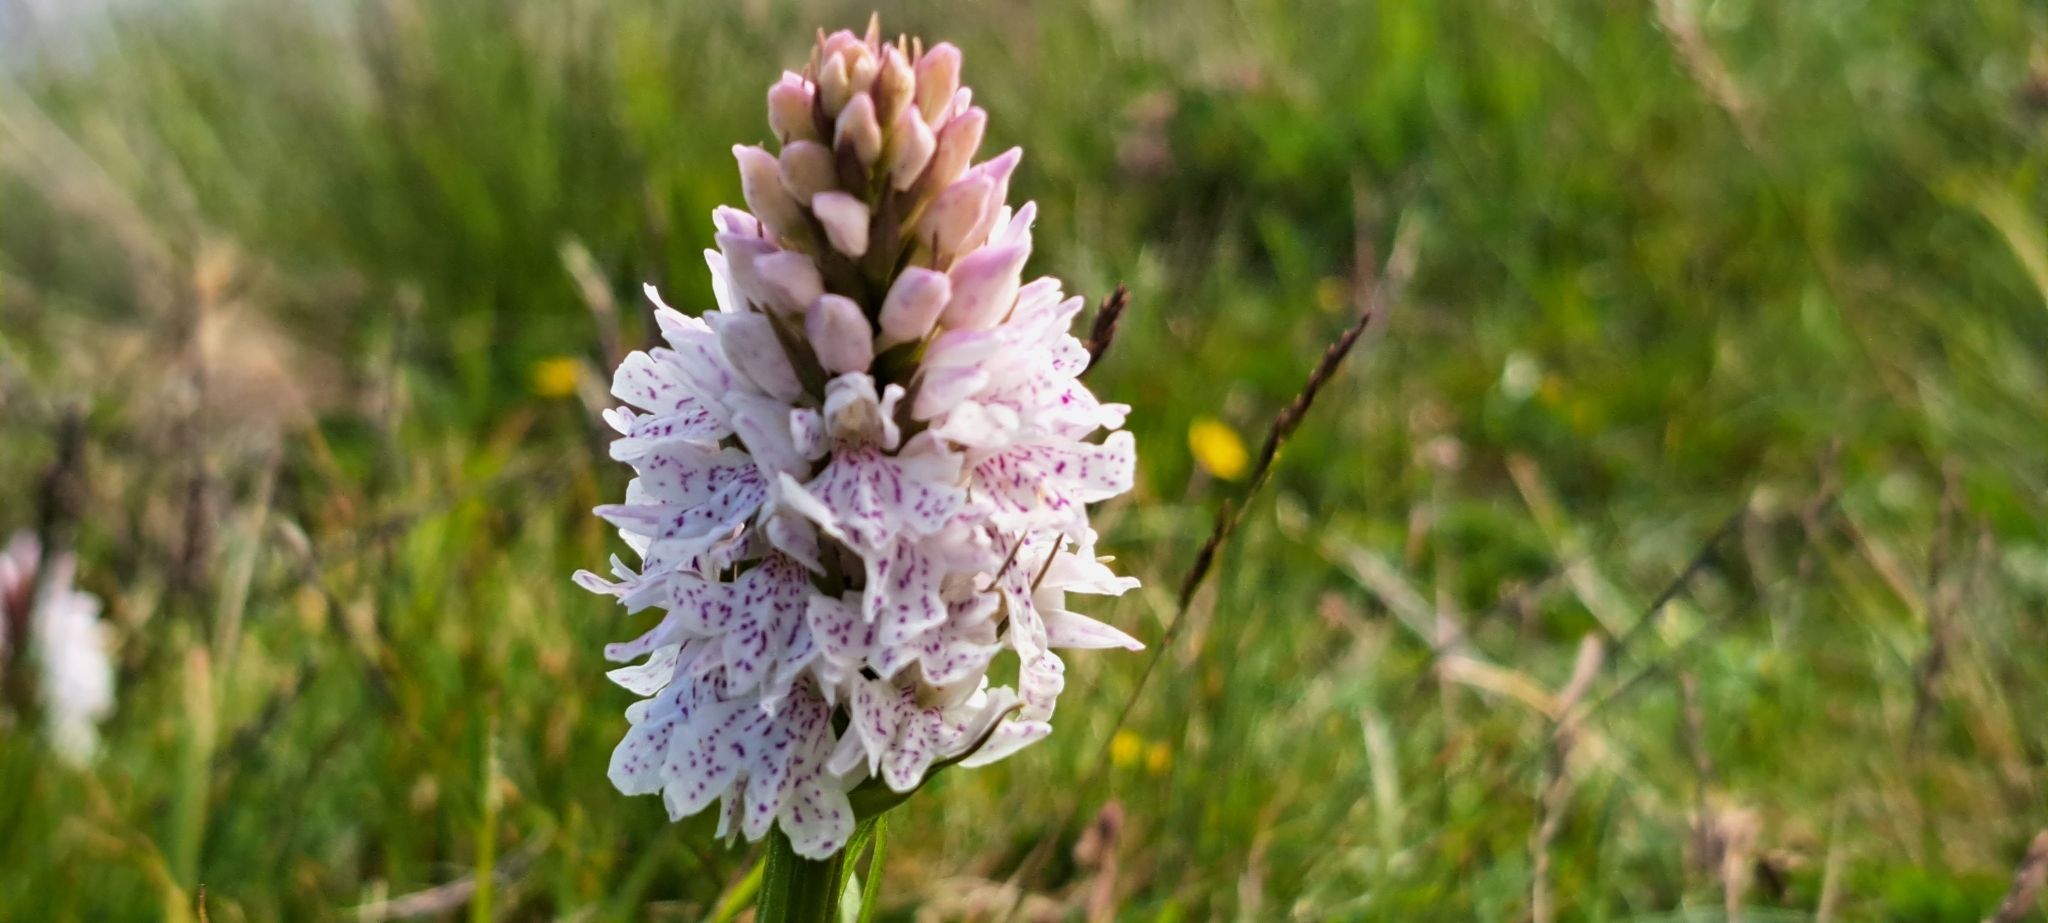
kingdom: Plantae
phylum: Tracheophyta
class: Liliopsida
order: Asparagales
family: Orchidaceae
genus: Dactylorhiza
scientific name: Dactylorhiza maculata
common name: Heath spotted-orchid
